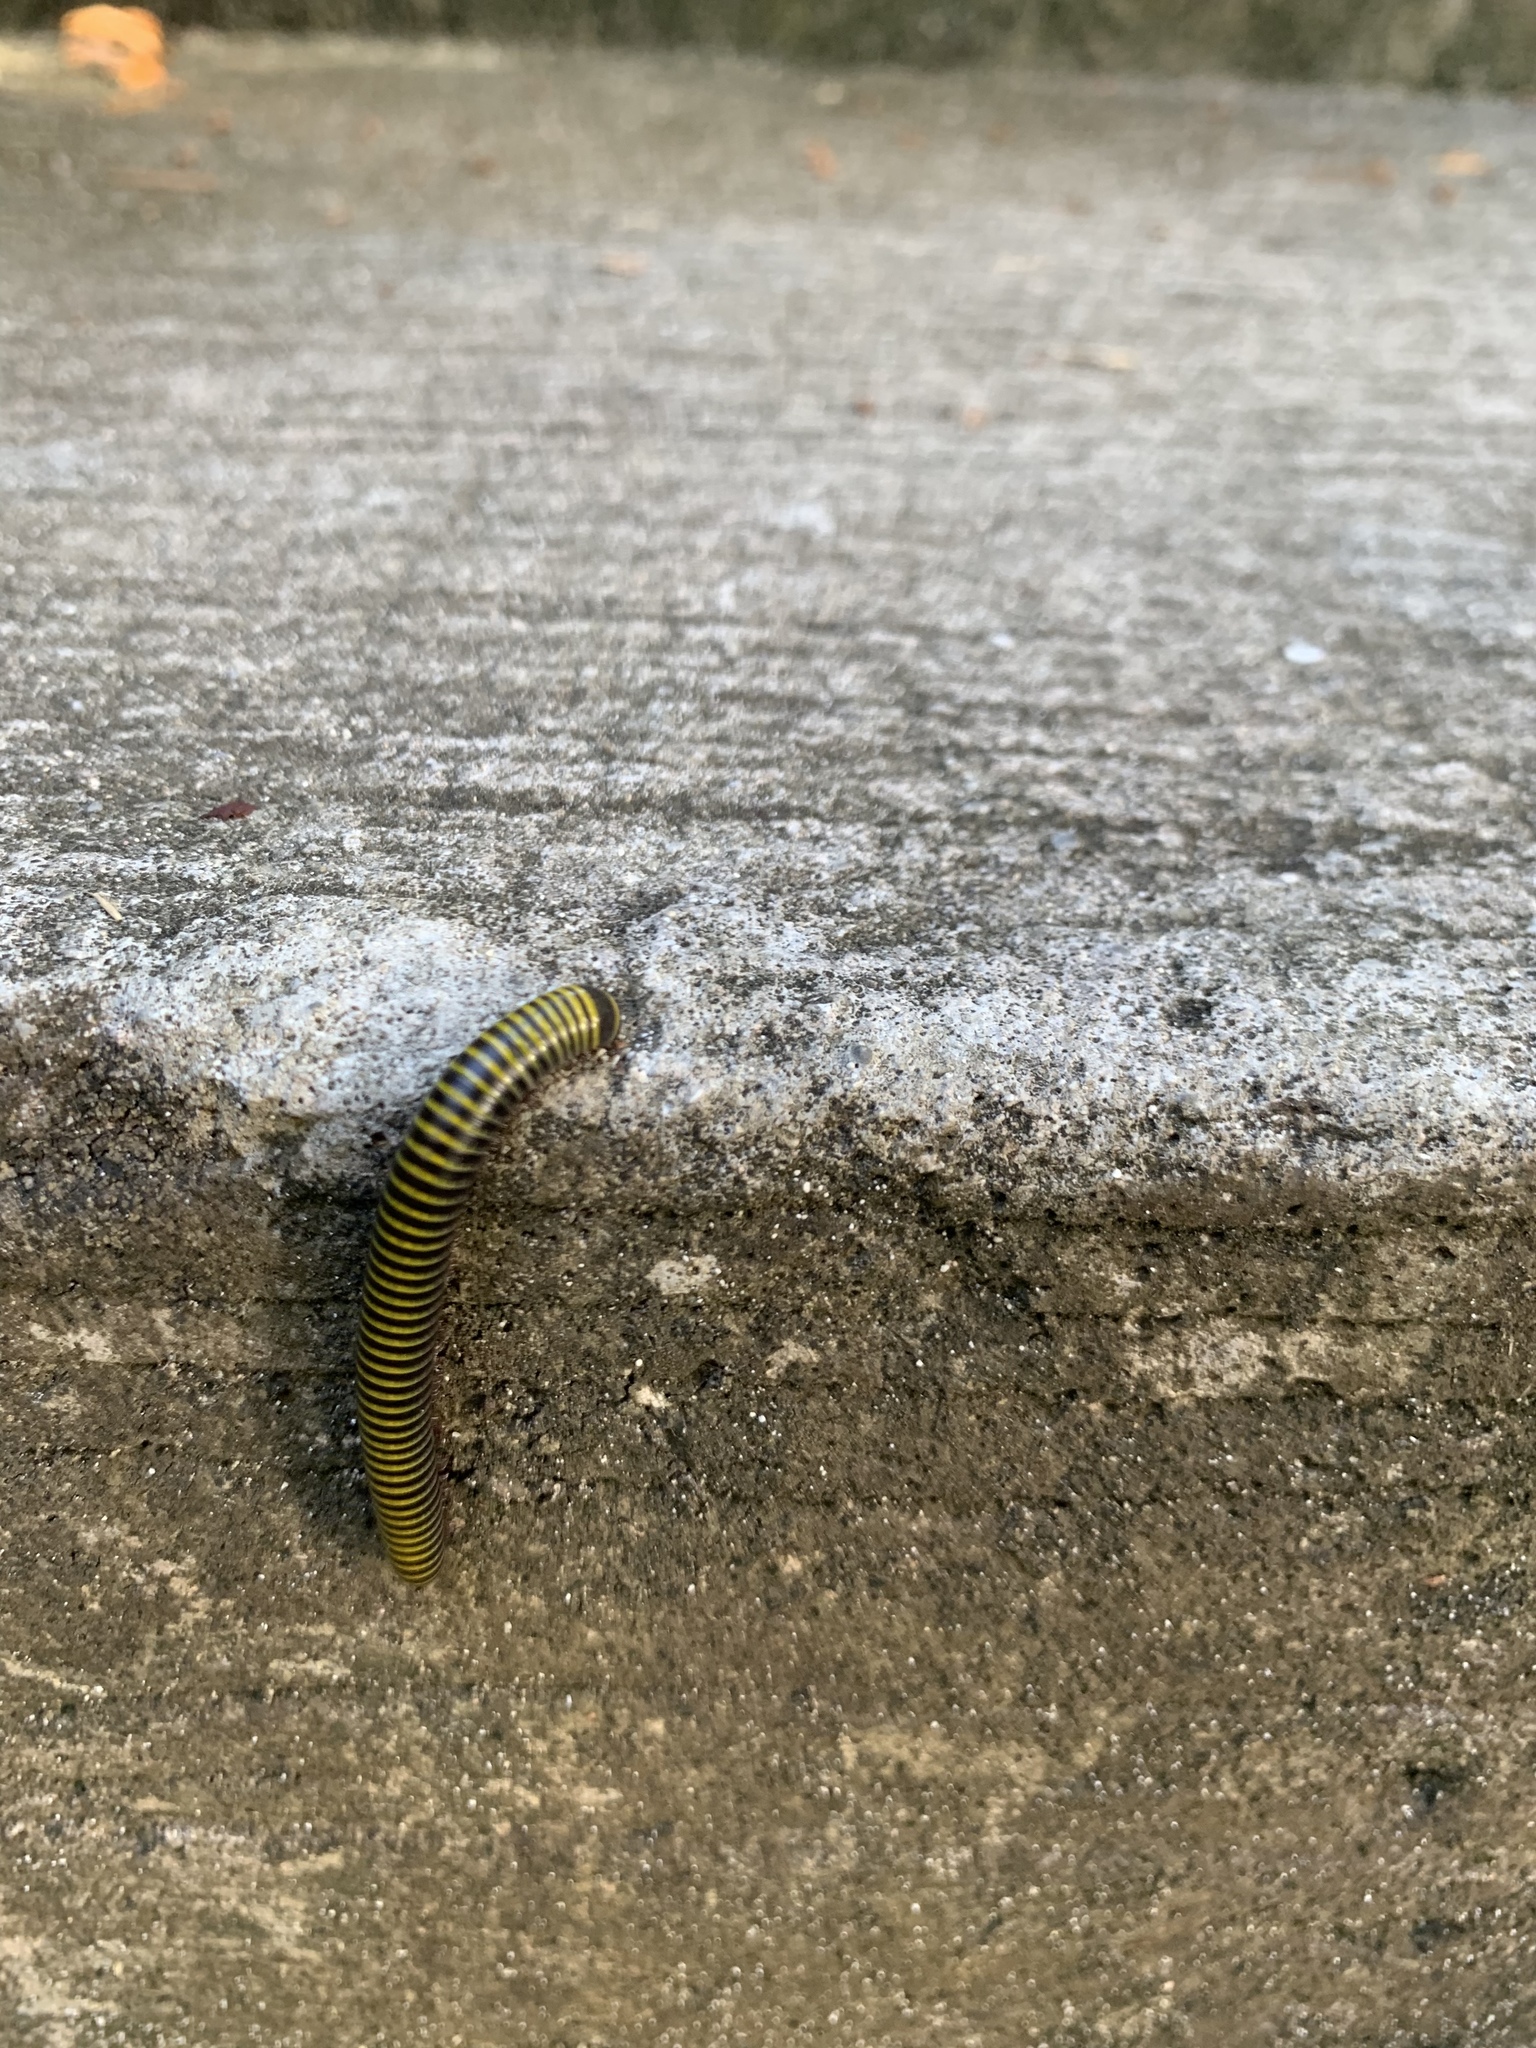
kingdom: Animalia
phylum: Arthropoda
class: Diplopoda
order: Spirobolida
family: Rhinocricidae
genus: Anadenobolus
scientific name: Anadenobolus monilicornis
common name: Caribbean millipede
